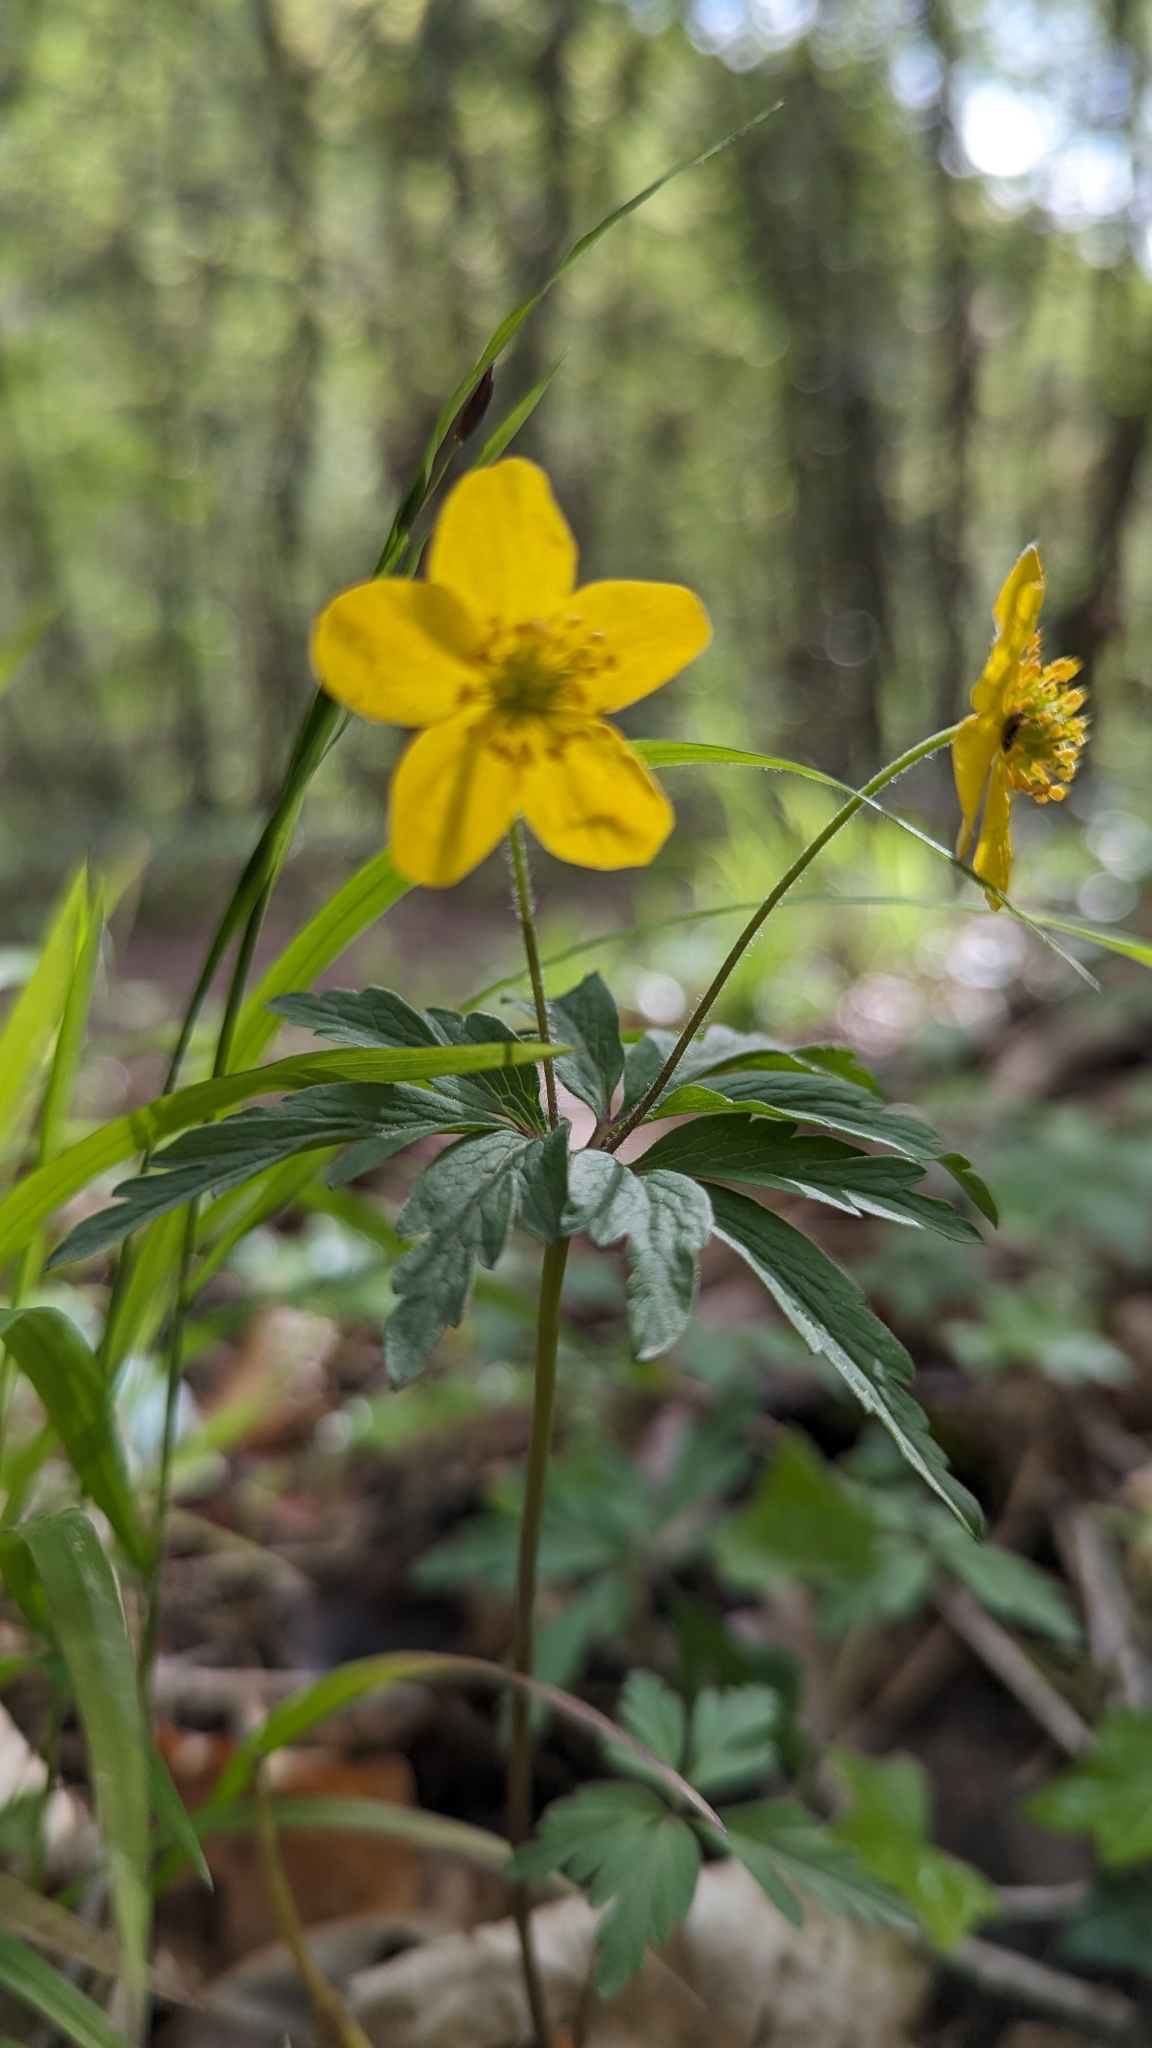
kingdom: Plantae
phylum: Tracheophyta
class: Magnoliopsida
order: Ranunculales
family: Ranunculaceae
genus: Anemone
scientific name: Anemone ranunculoides
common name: Yellow anemone
